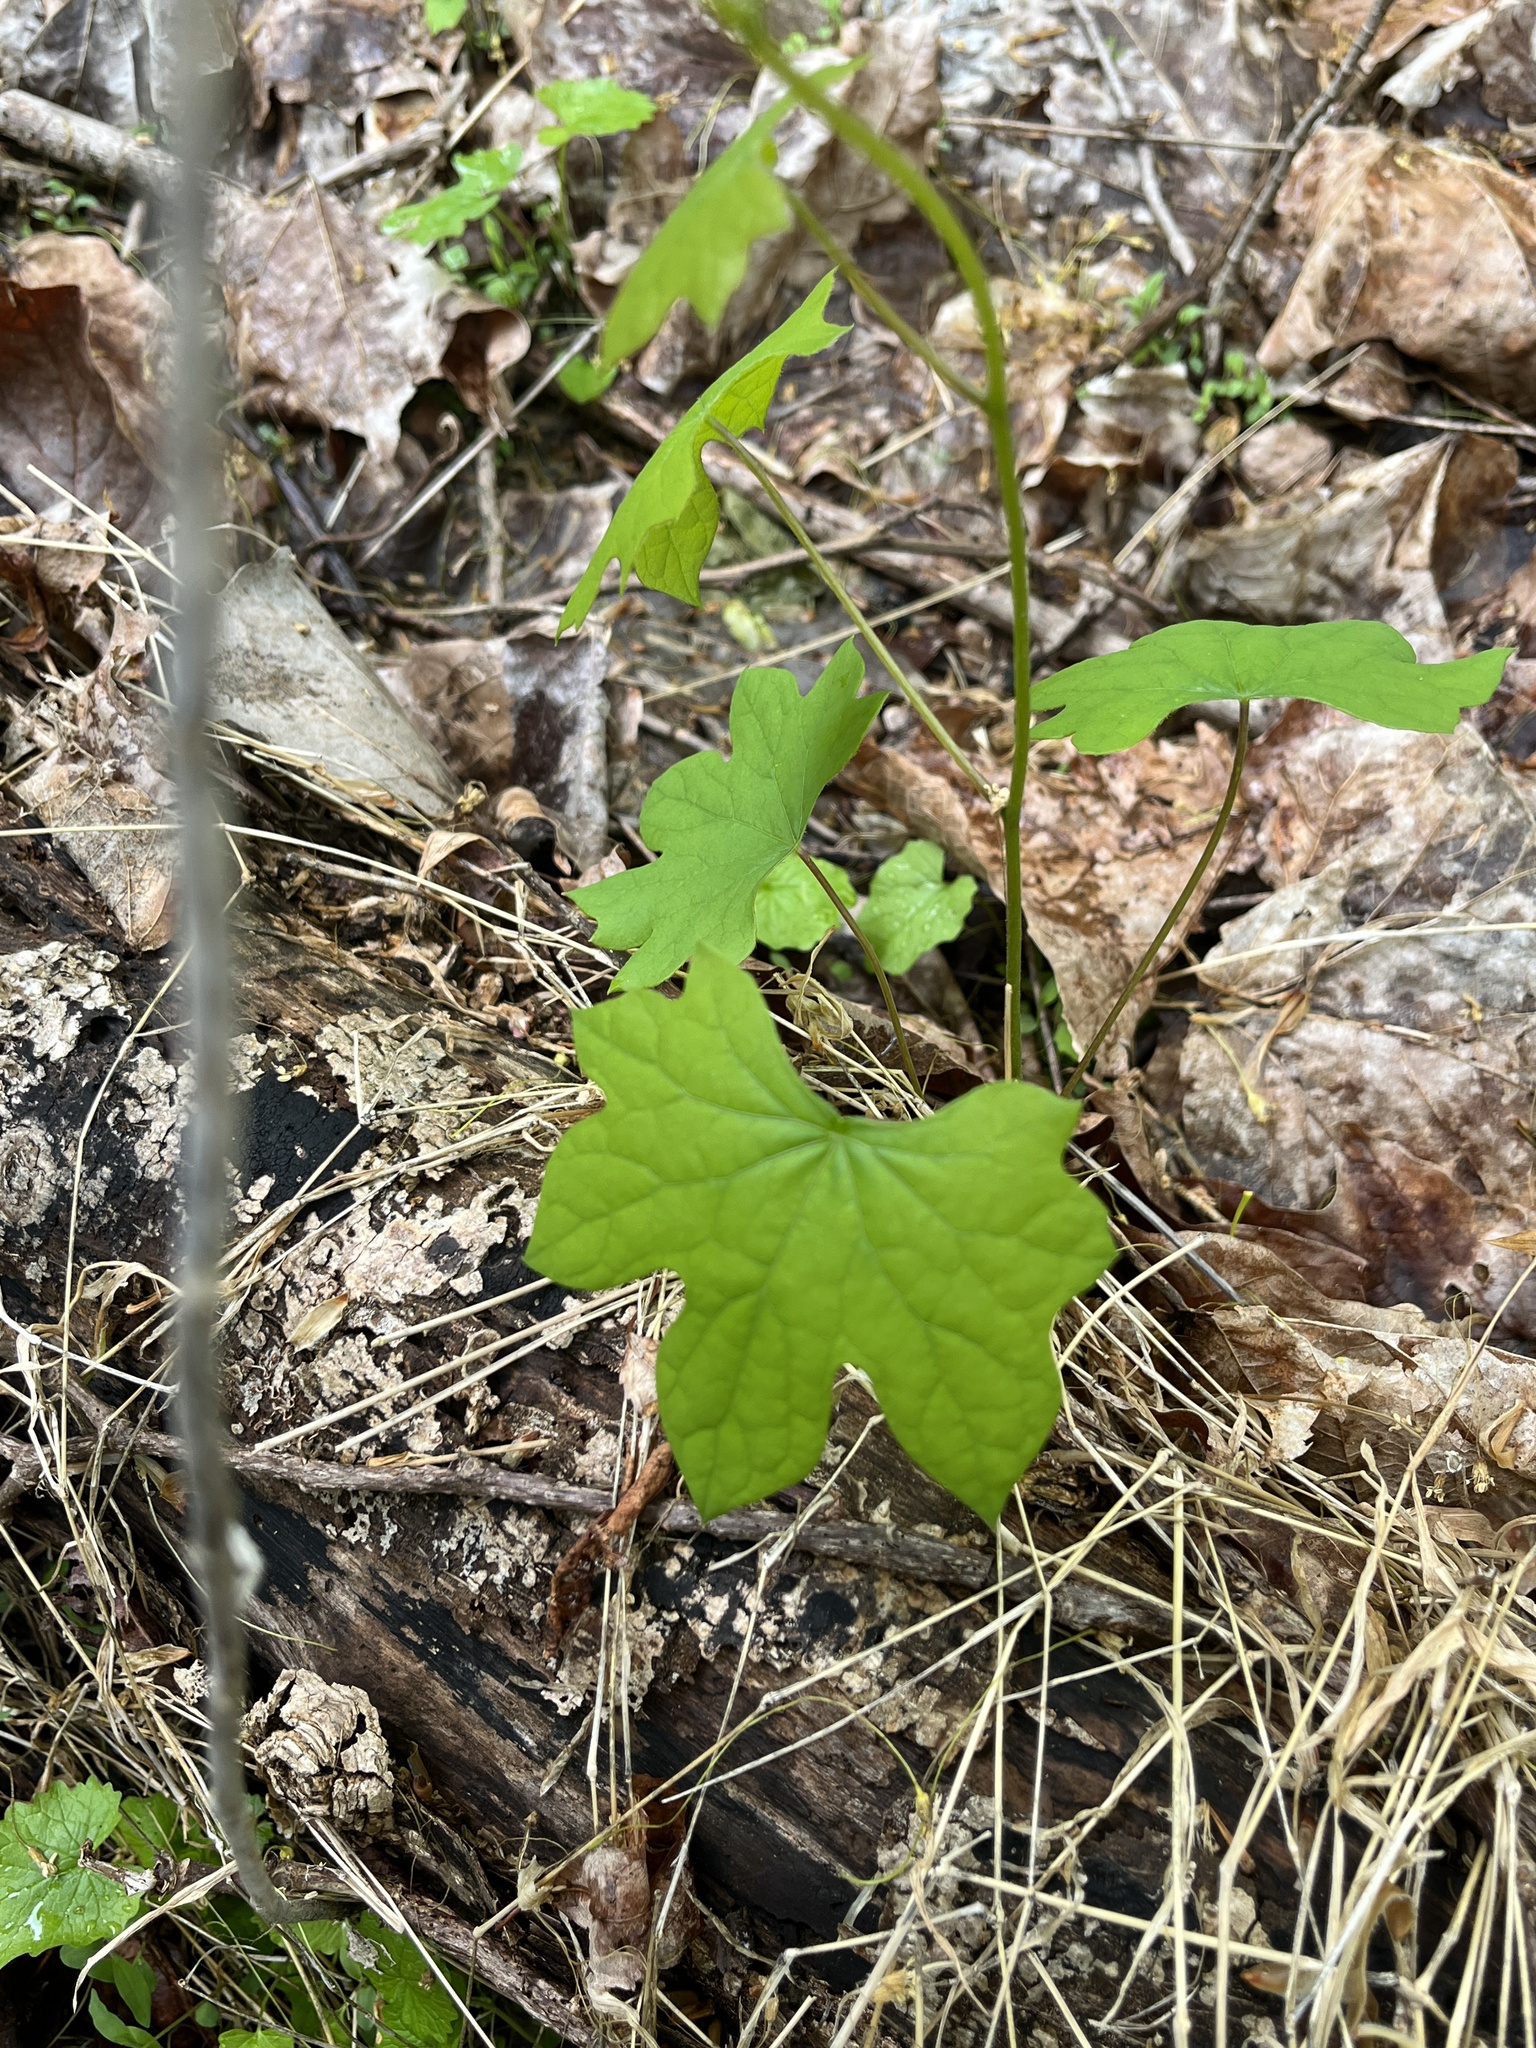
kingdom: Plantae
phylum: Tracheophyta
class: Magnoliopsida
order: Ranunculales
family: Menispermaceae
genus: Menispermum
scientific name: Menispermum canadense
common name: Moonseed
